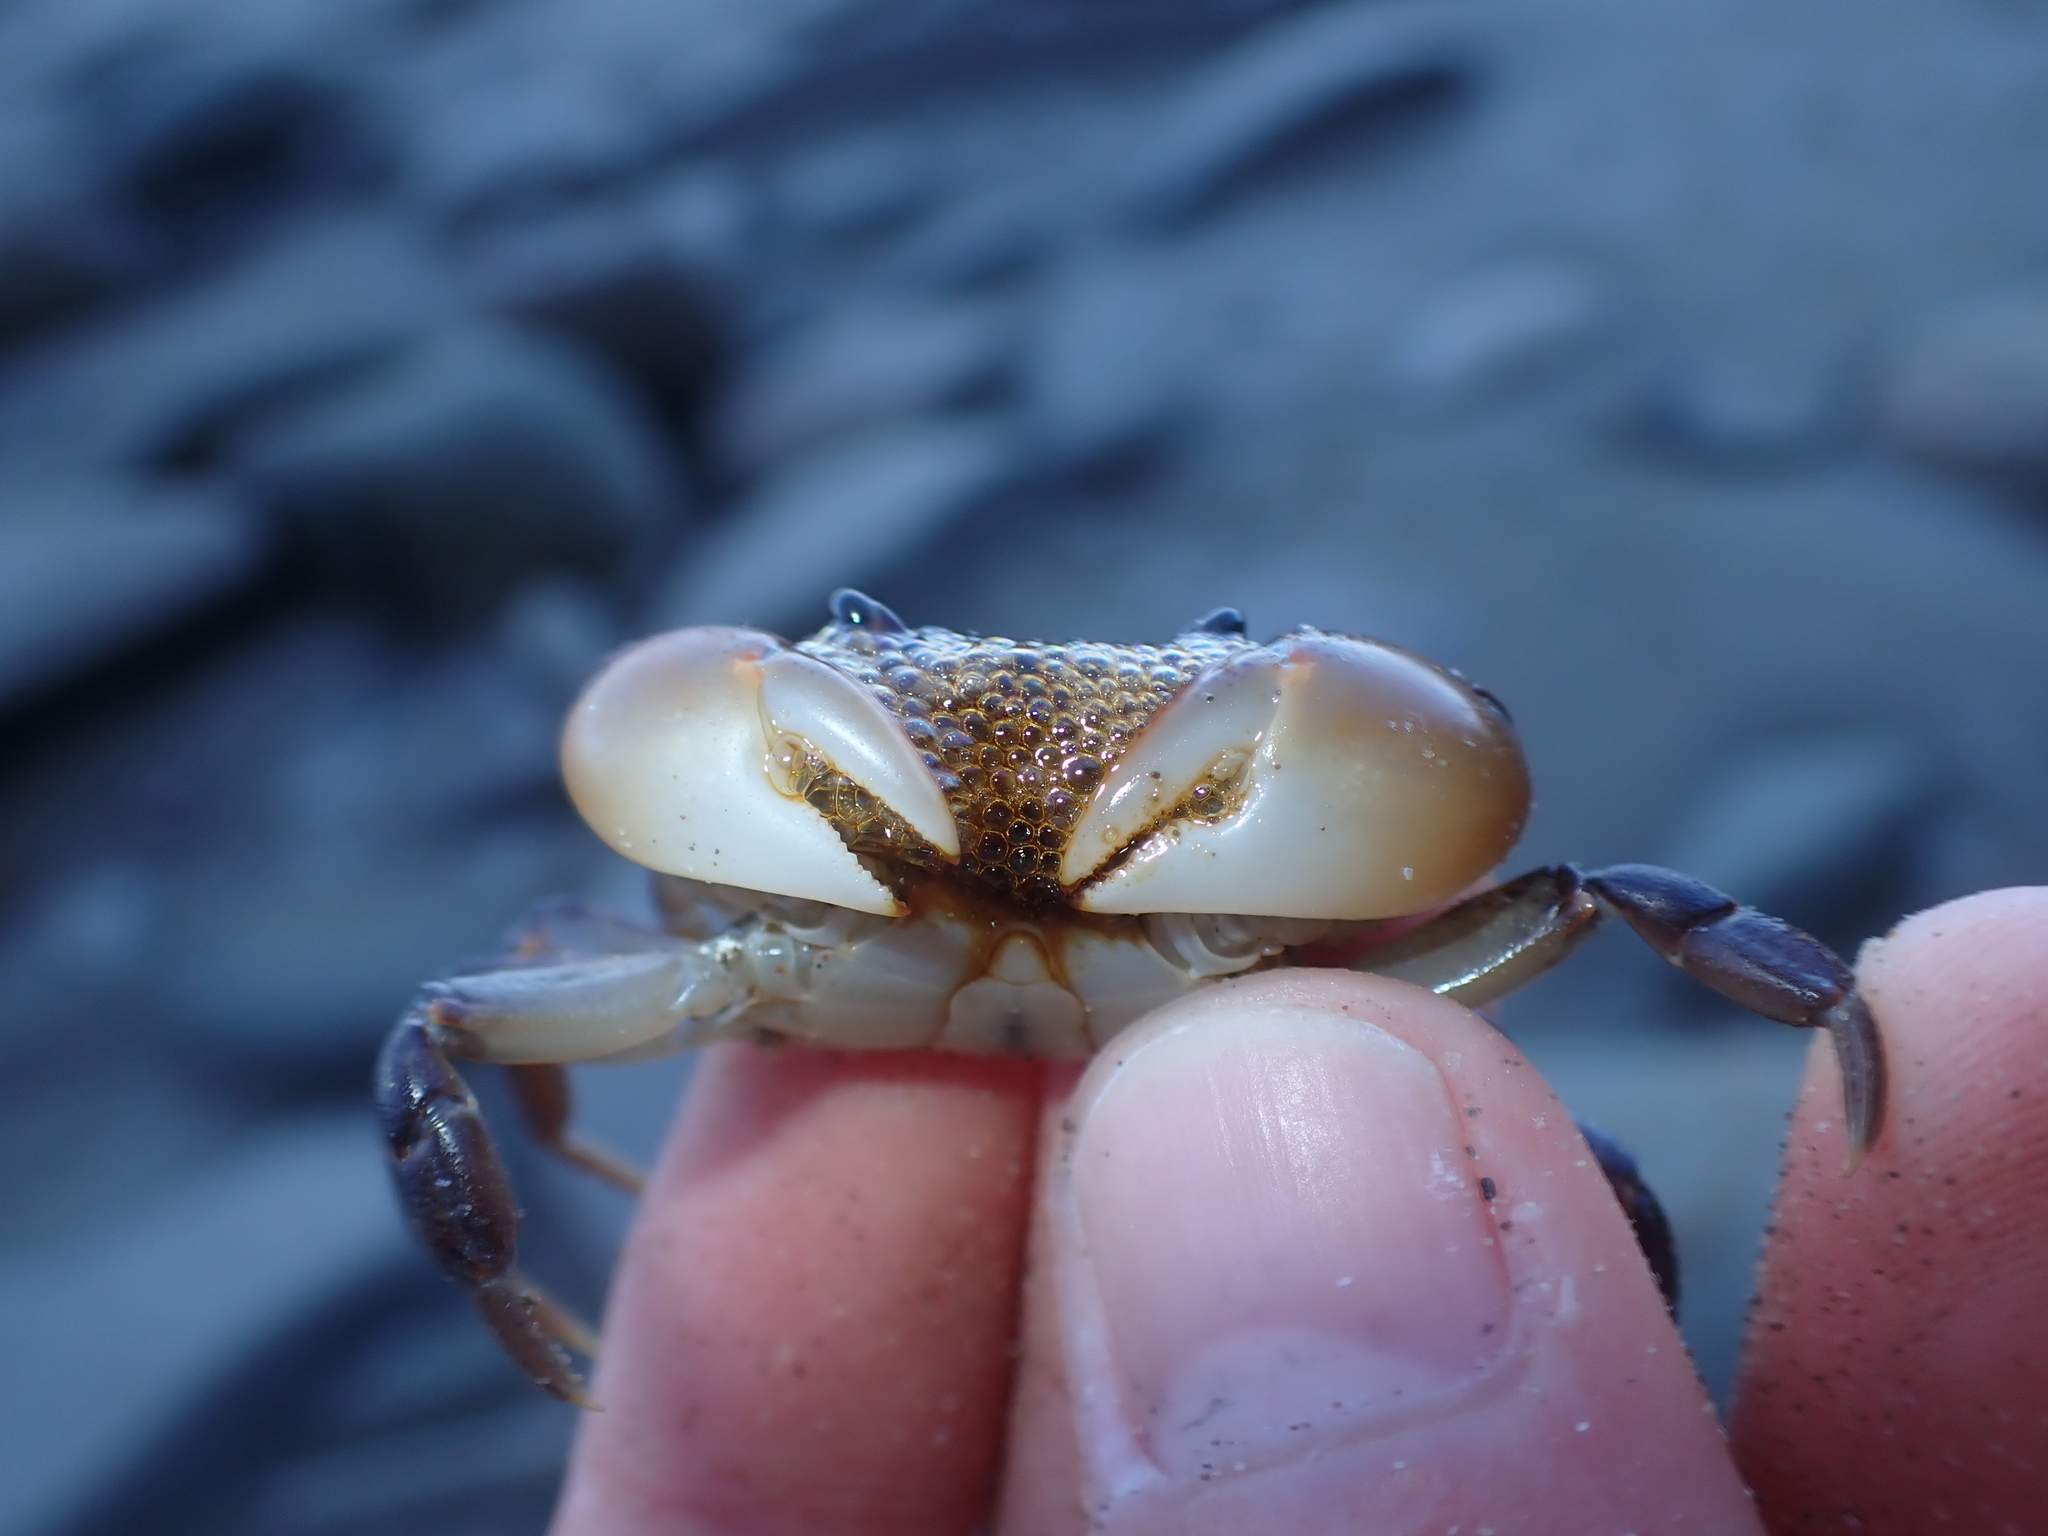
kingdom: Animalia
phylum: Arthropoda
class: Malacostraca
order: Decapoda
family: Varunidae
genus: Cyclograpsus
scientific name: Cyclograpsus lavauxi
